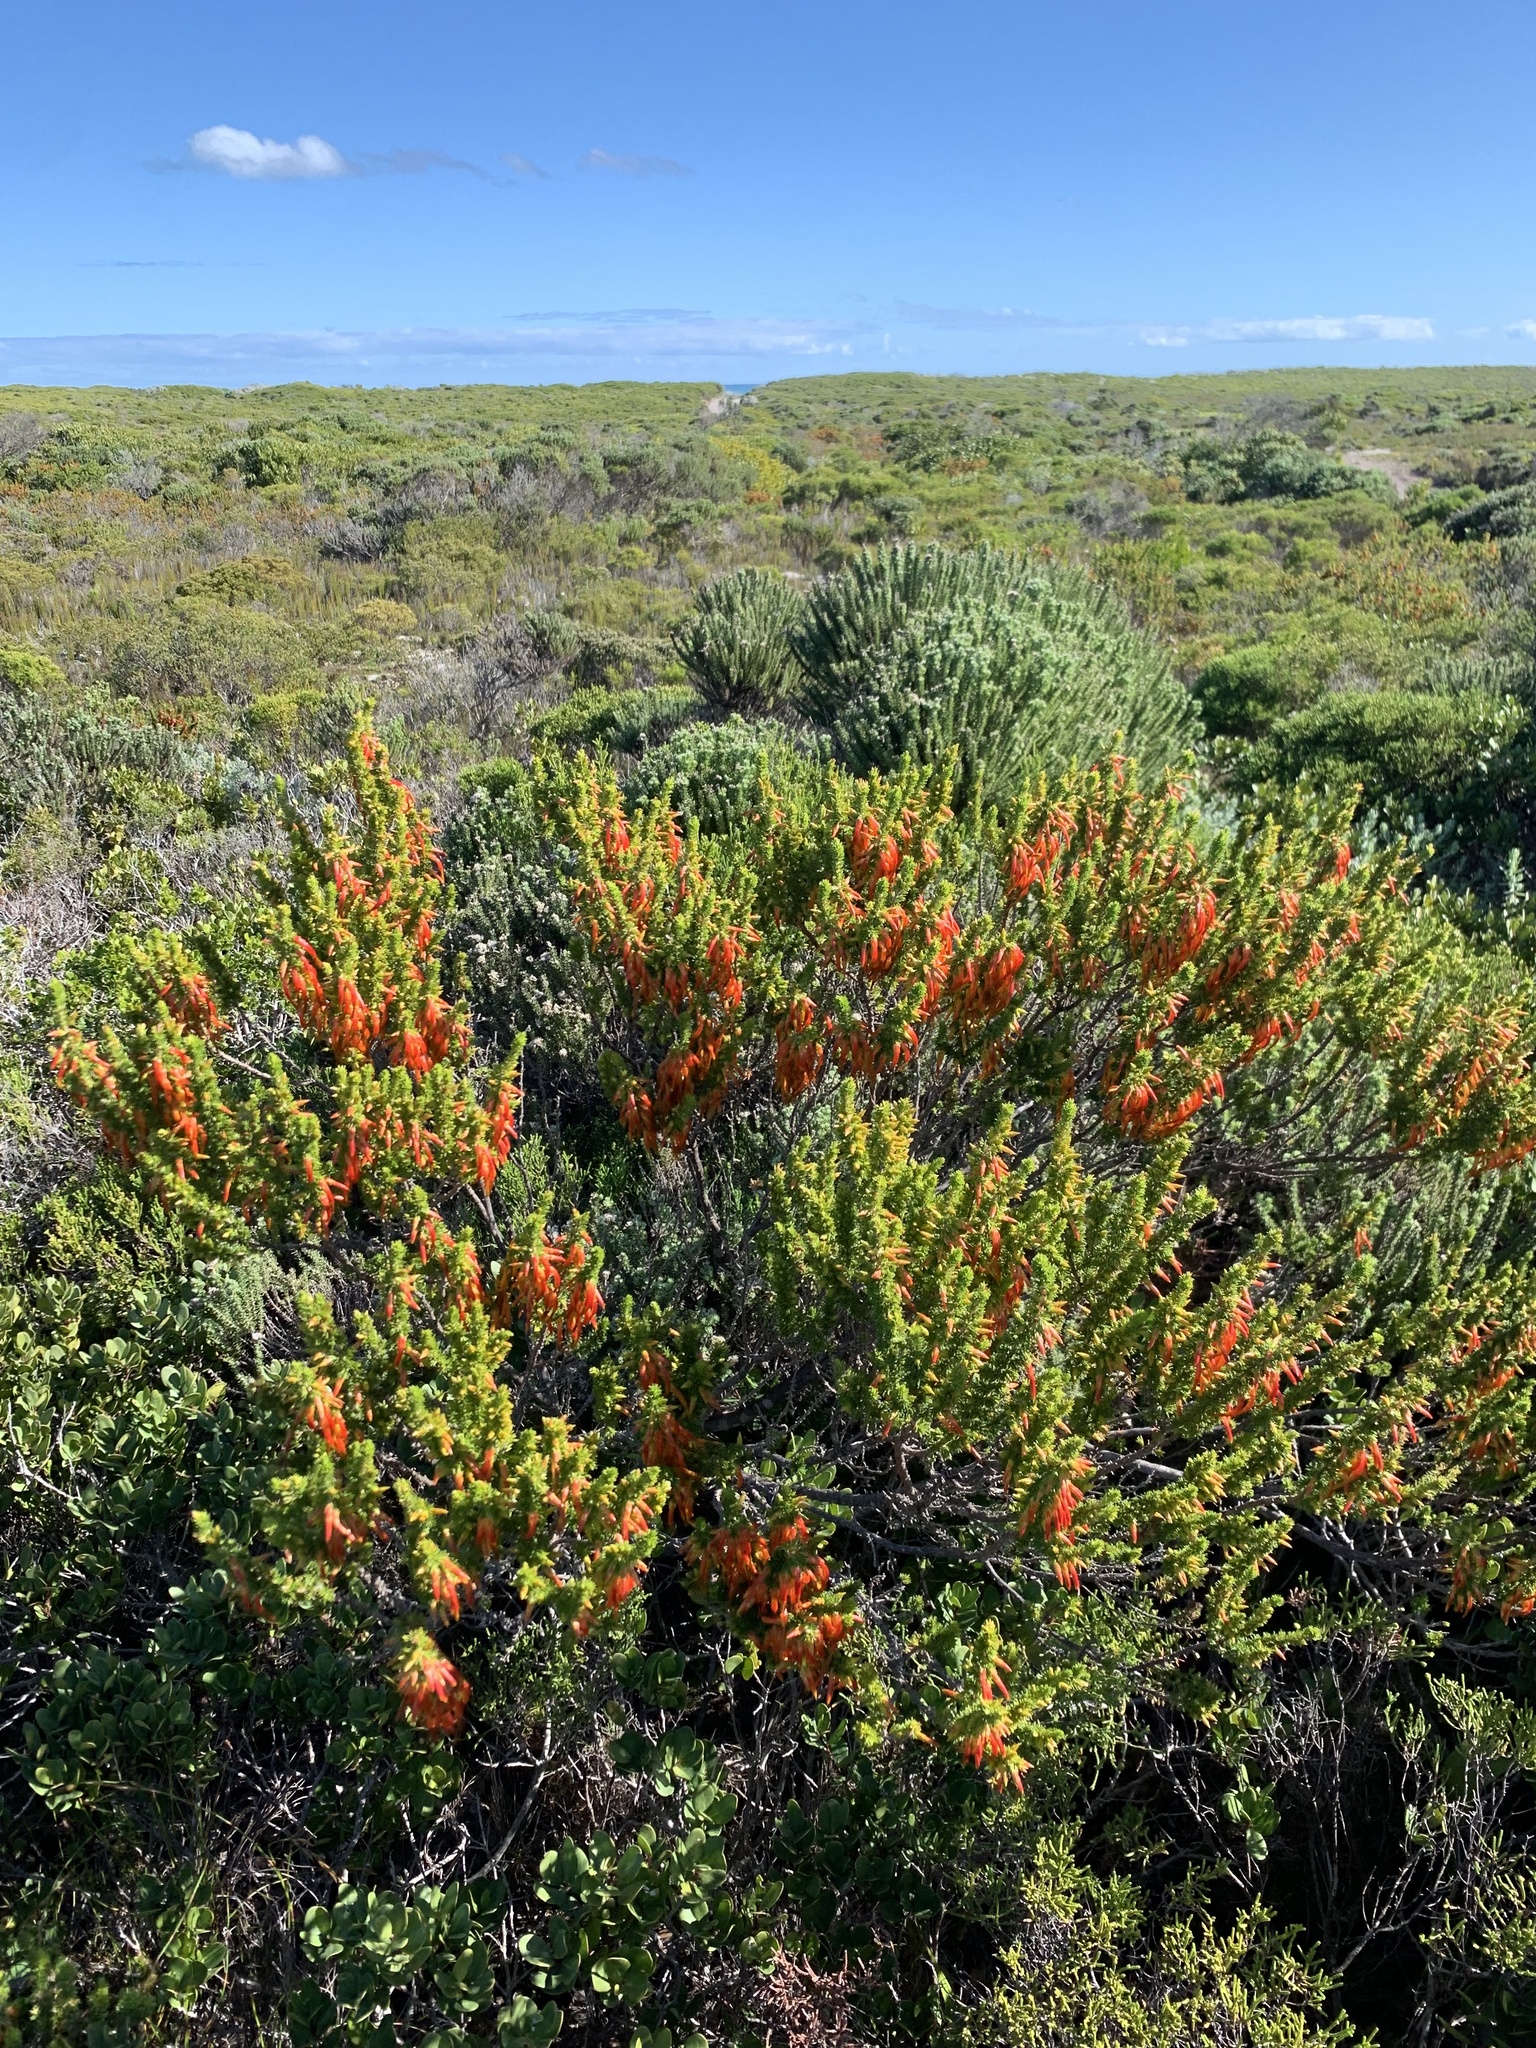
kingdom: Plantae
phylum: Tracheophyta
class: Magnoliopsida
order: Ericales
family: Ericaceae
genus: Erica
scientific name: Erica coccinea
